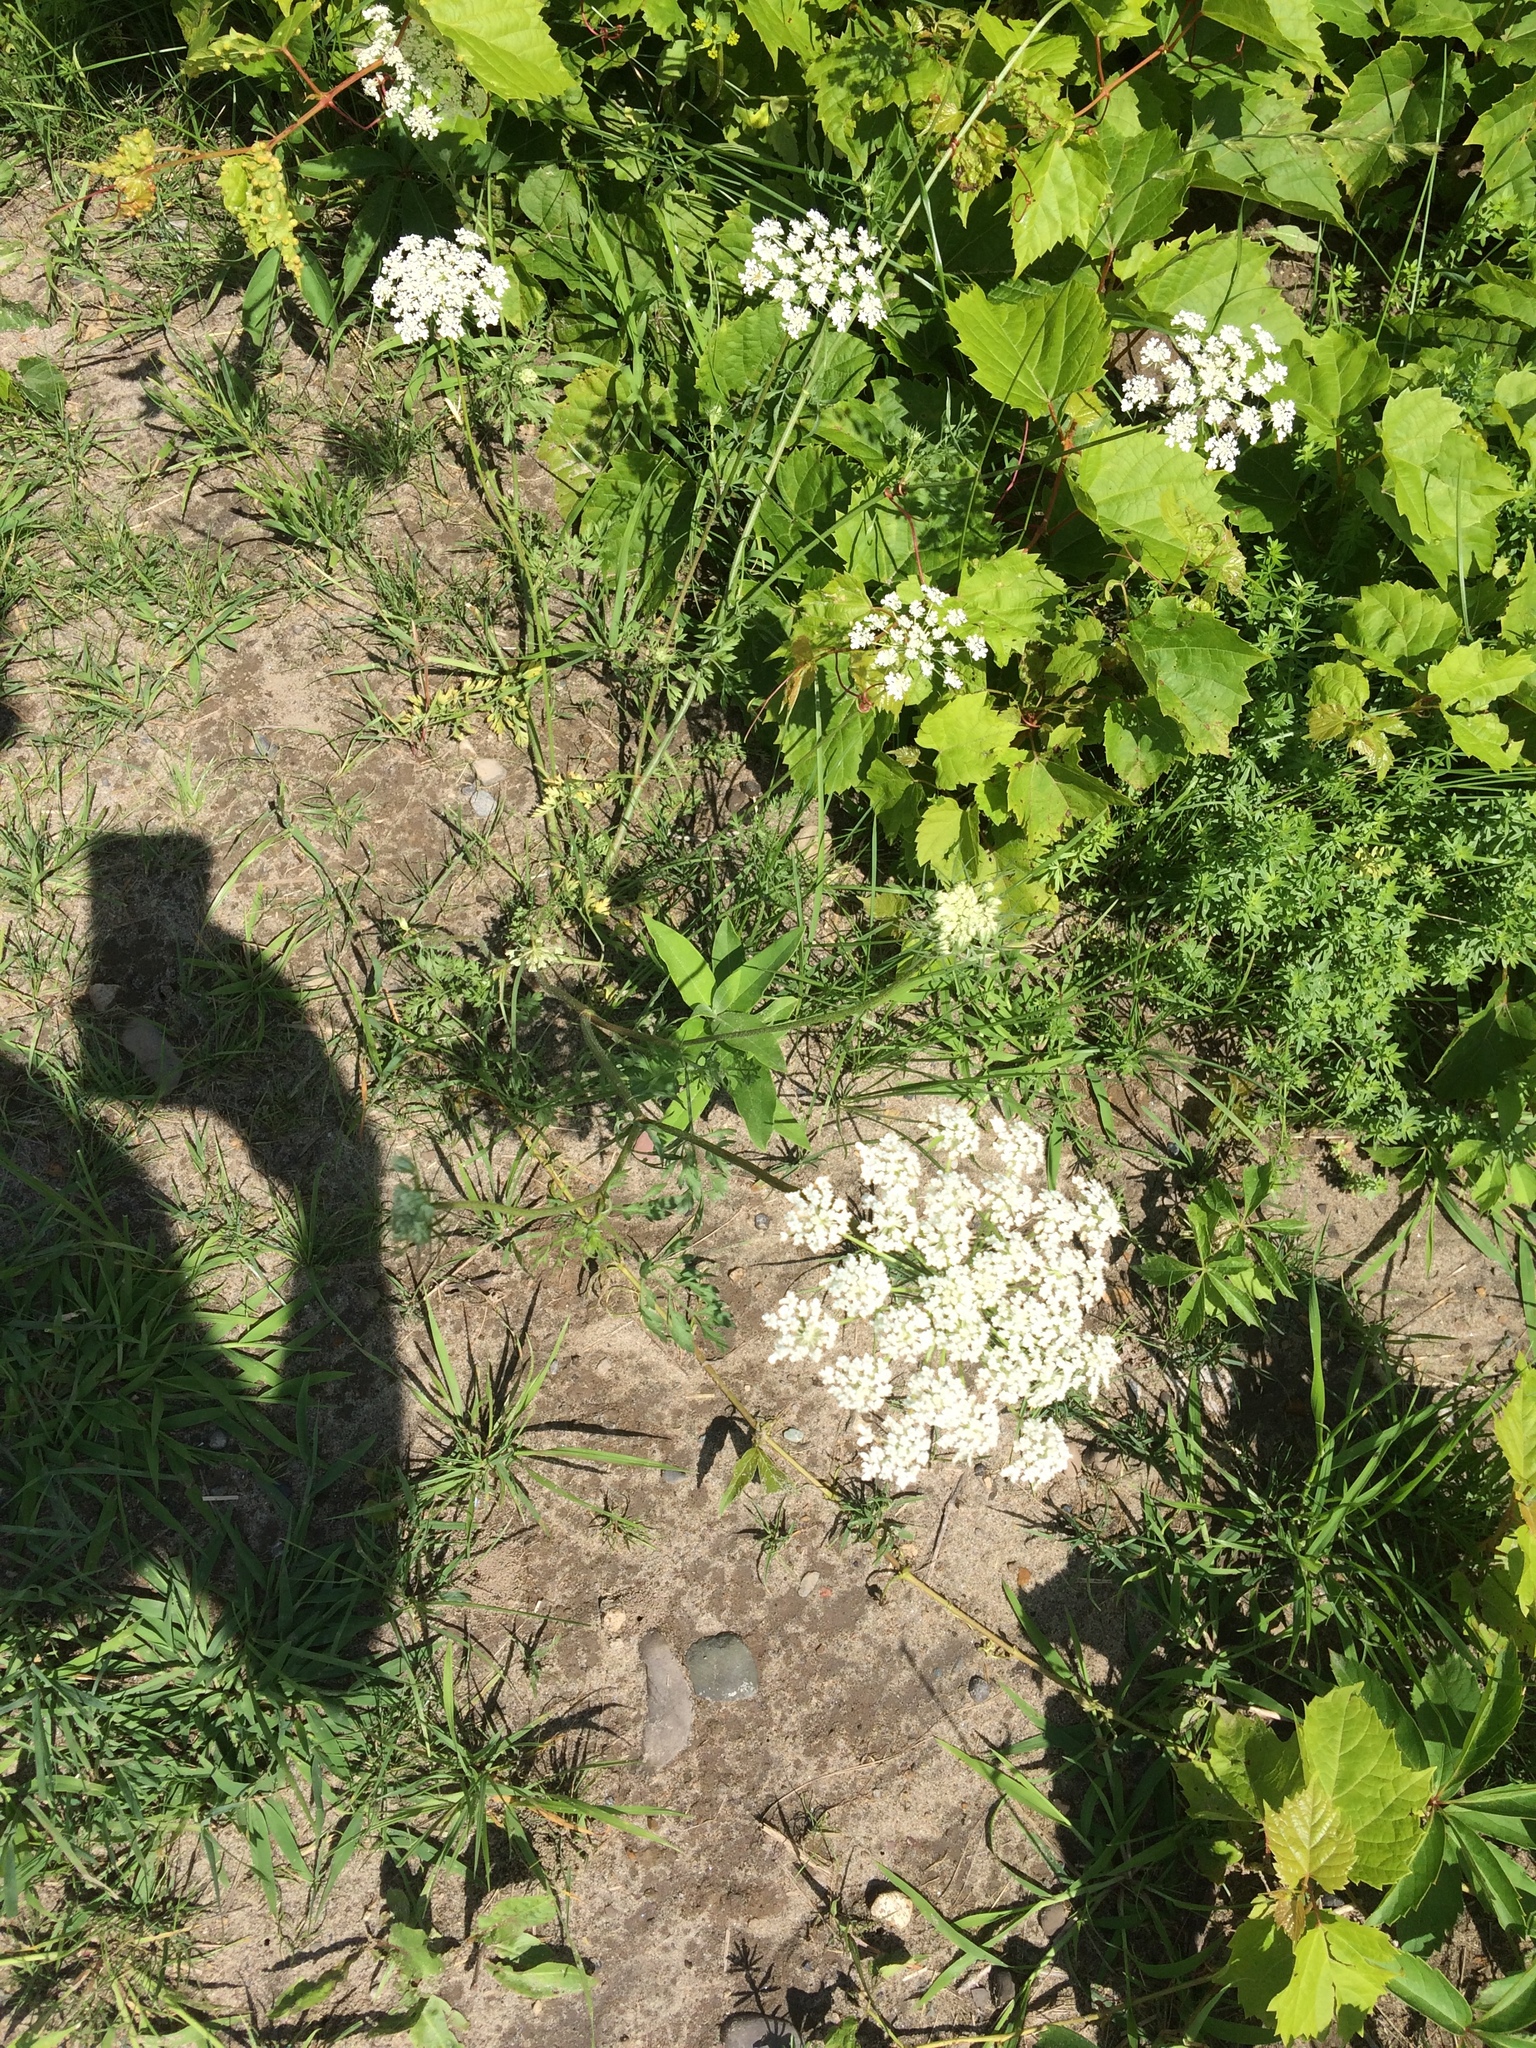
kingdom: Plantae
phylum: Tracheophyta
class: Magnoliopsida
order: Apiales
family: Apiaceae
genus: Daucus
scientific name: Daucus carota
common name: Wild carrot
